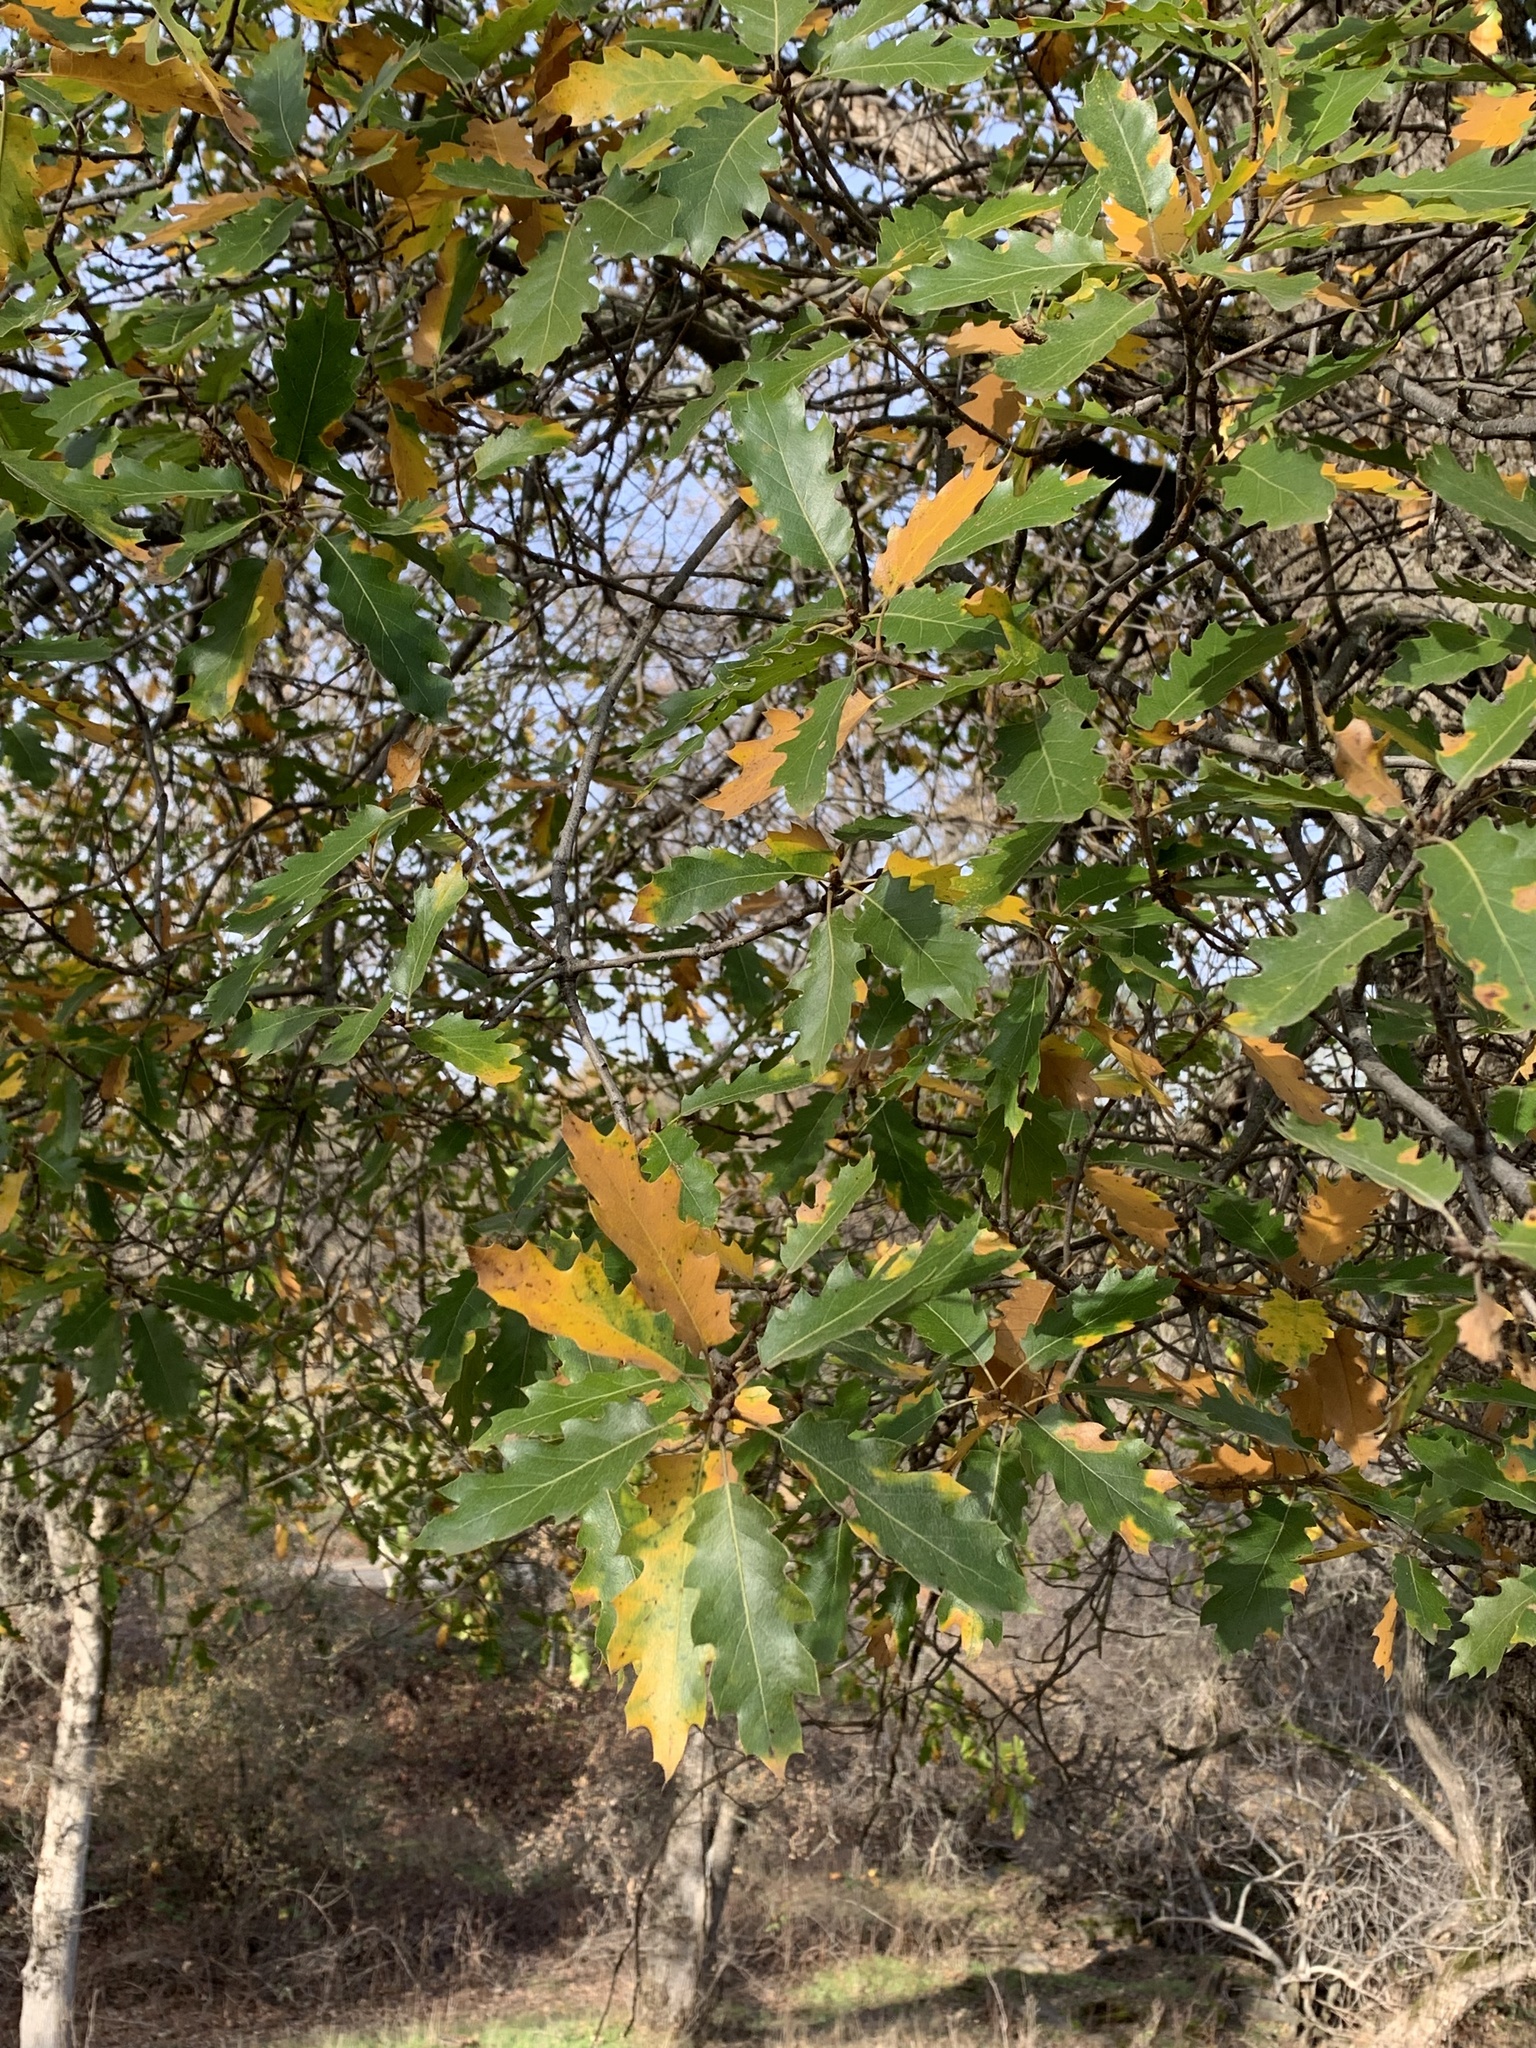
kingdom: Plantae
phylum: Tracheophyta
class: Magnoliopsida
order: Fagales
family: Fagaceae
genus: Quercus
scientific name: Quercus morehus
